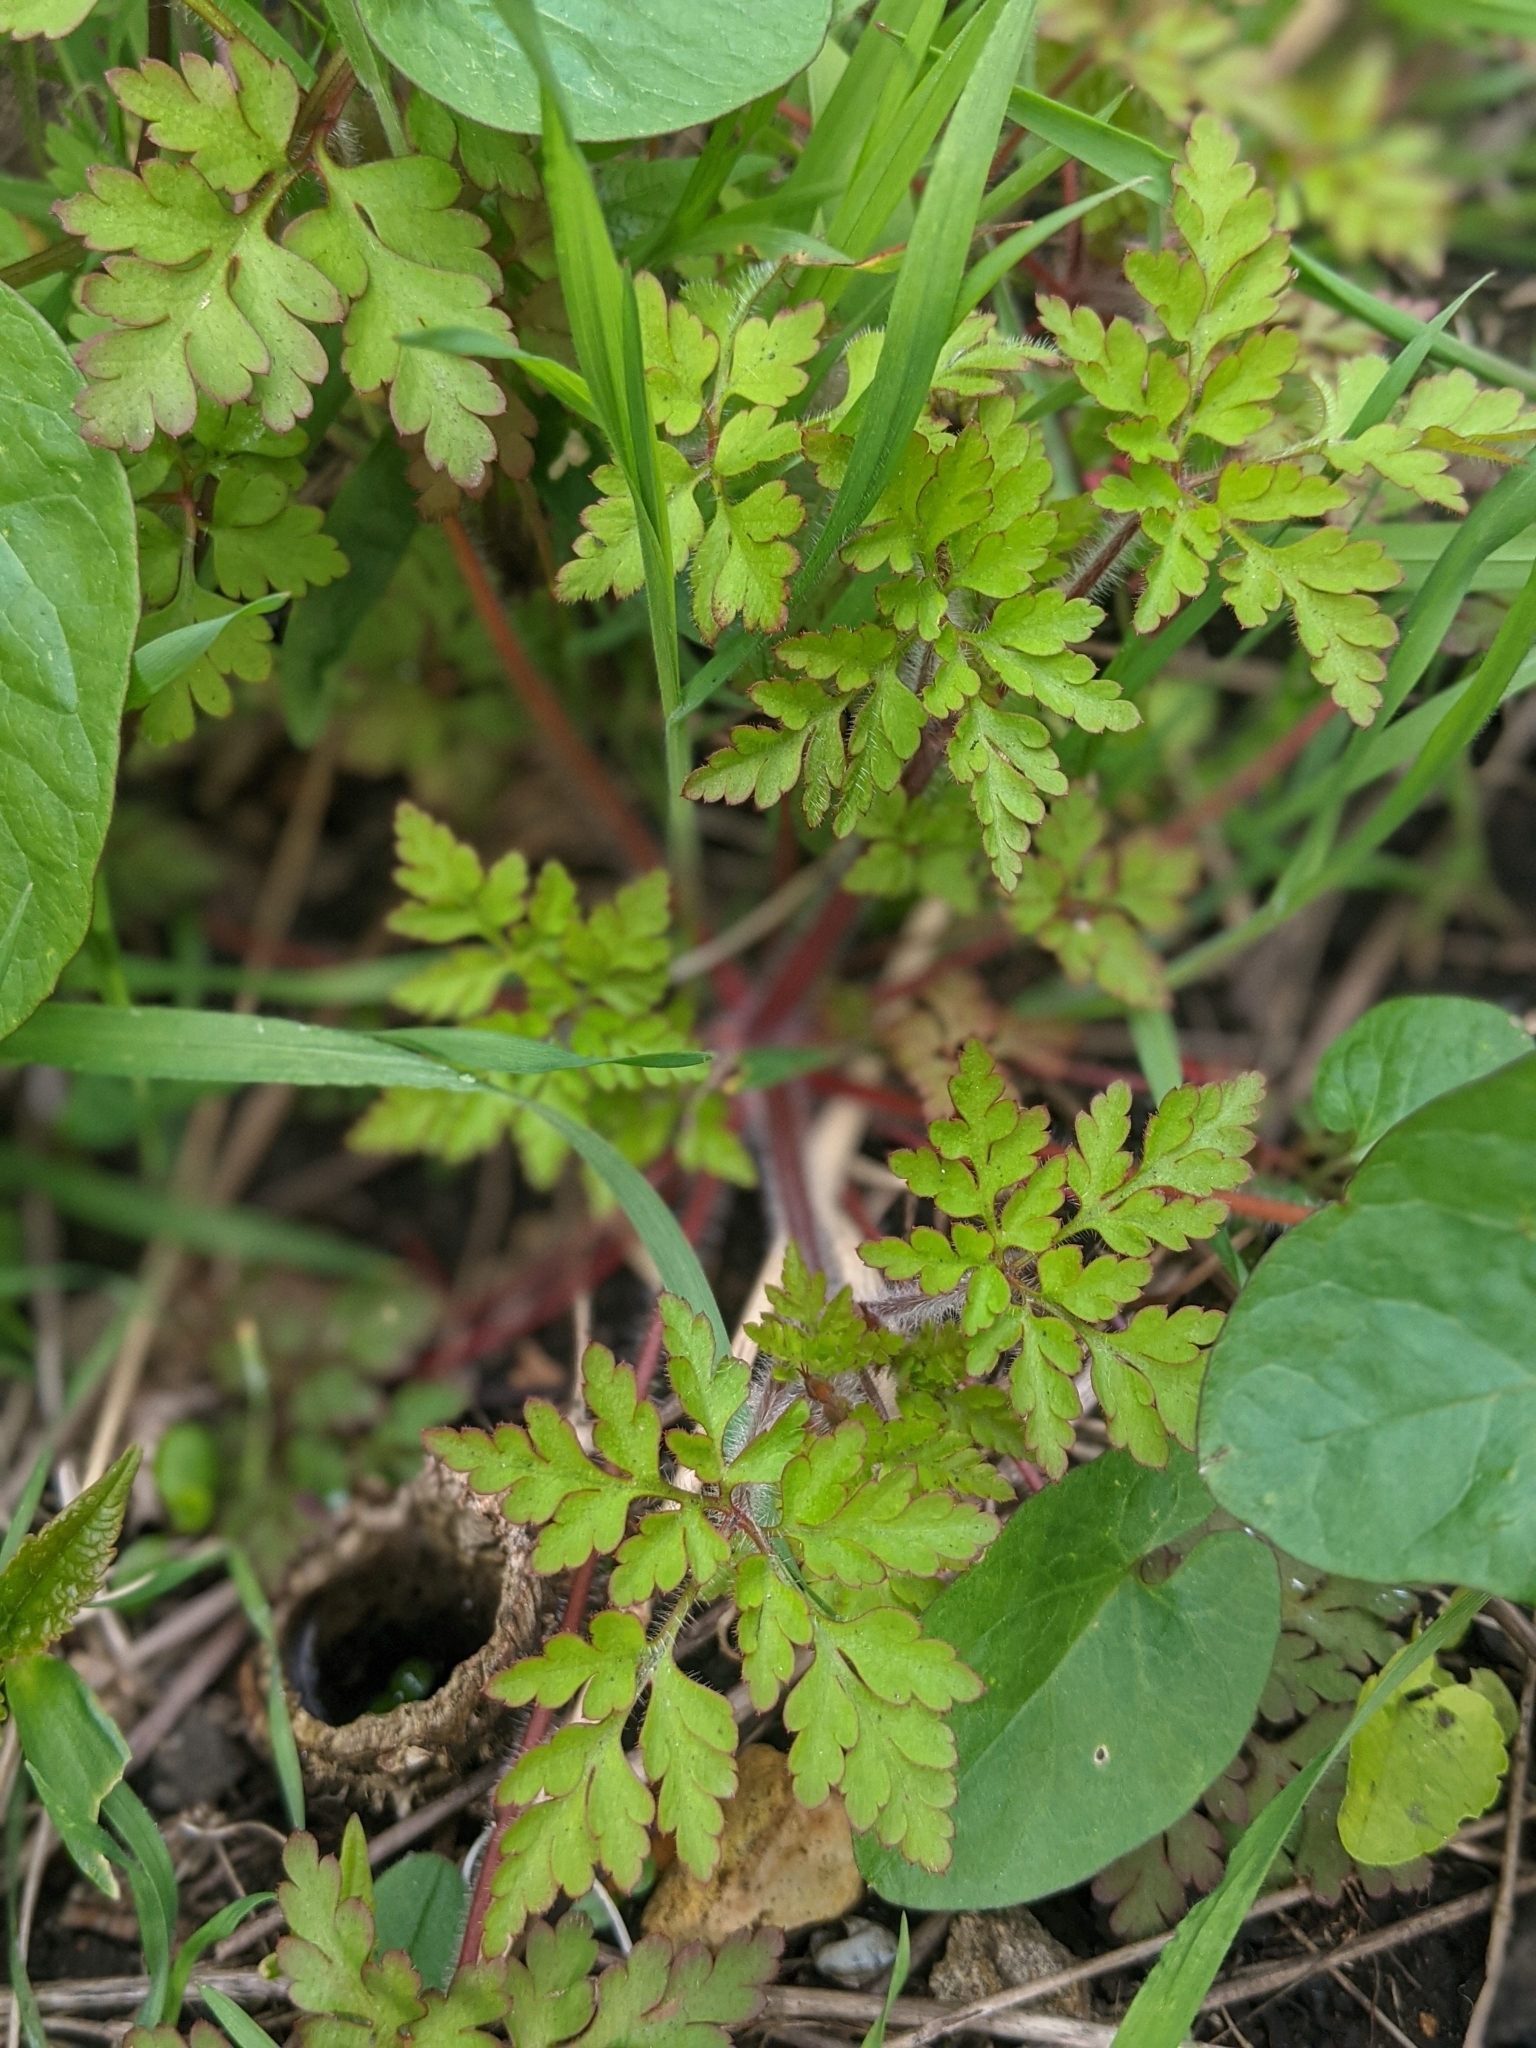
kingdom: Plantae
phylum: Tracheophyta
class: Magnoliopsida
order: Geraniales
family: Geraniaceae
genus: Geranium
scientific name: Geranium robertianum
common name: Herb-robert
